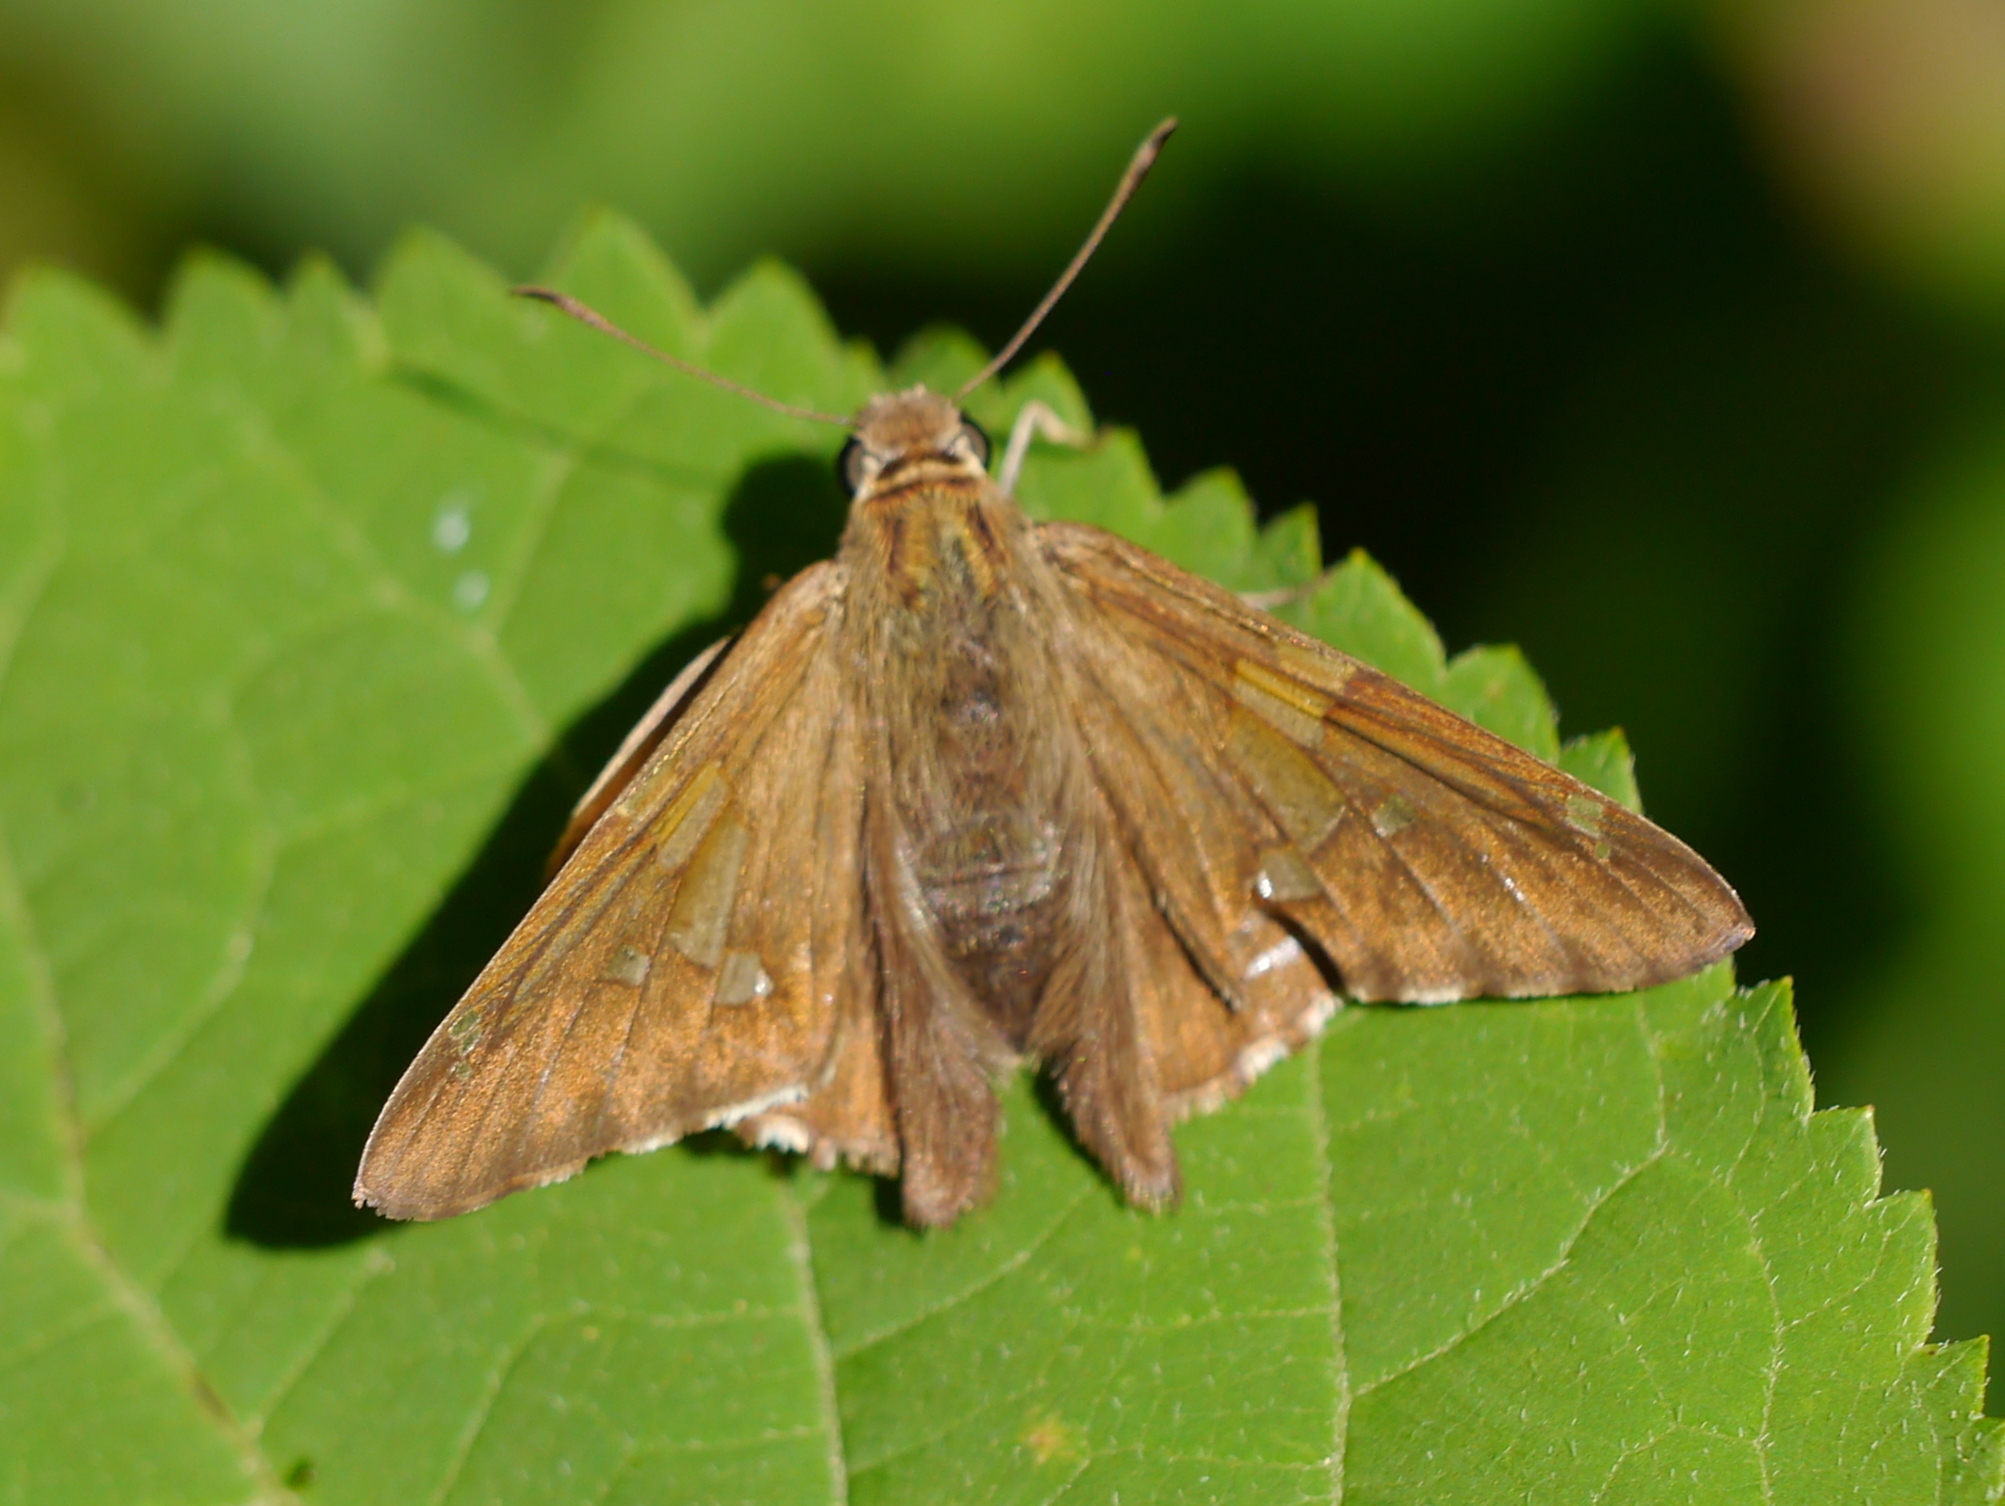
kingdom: Animalia
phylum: Arthropoda
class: Insecta
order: Lepidoptera
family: Hesperiidae
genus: Epargyreus
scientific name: Epargyreus clarus
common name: Silver-spotted skipper
